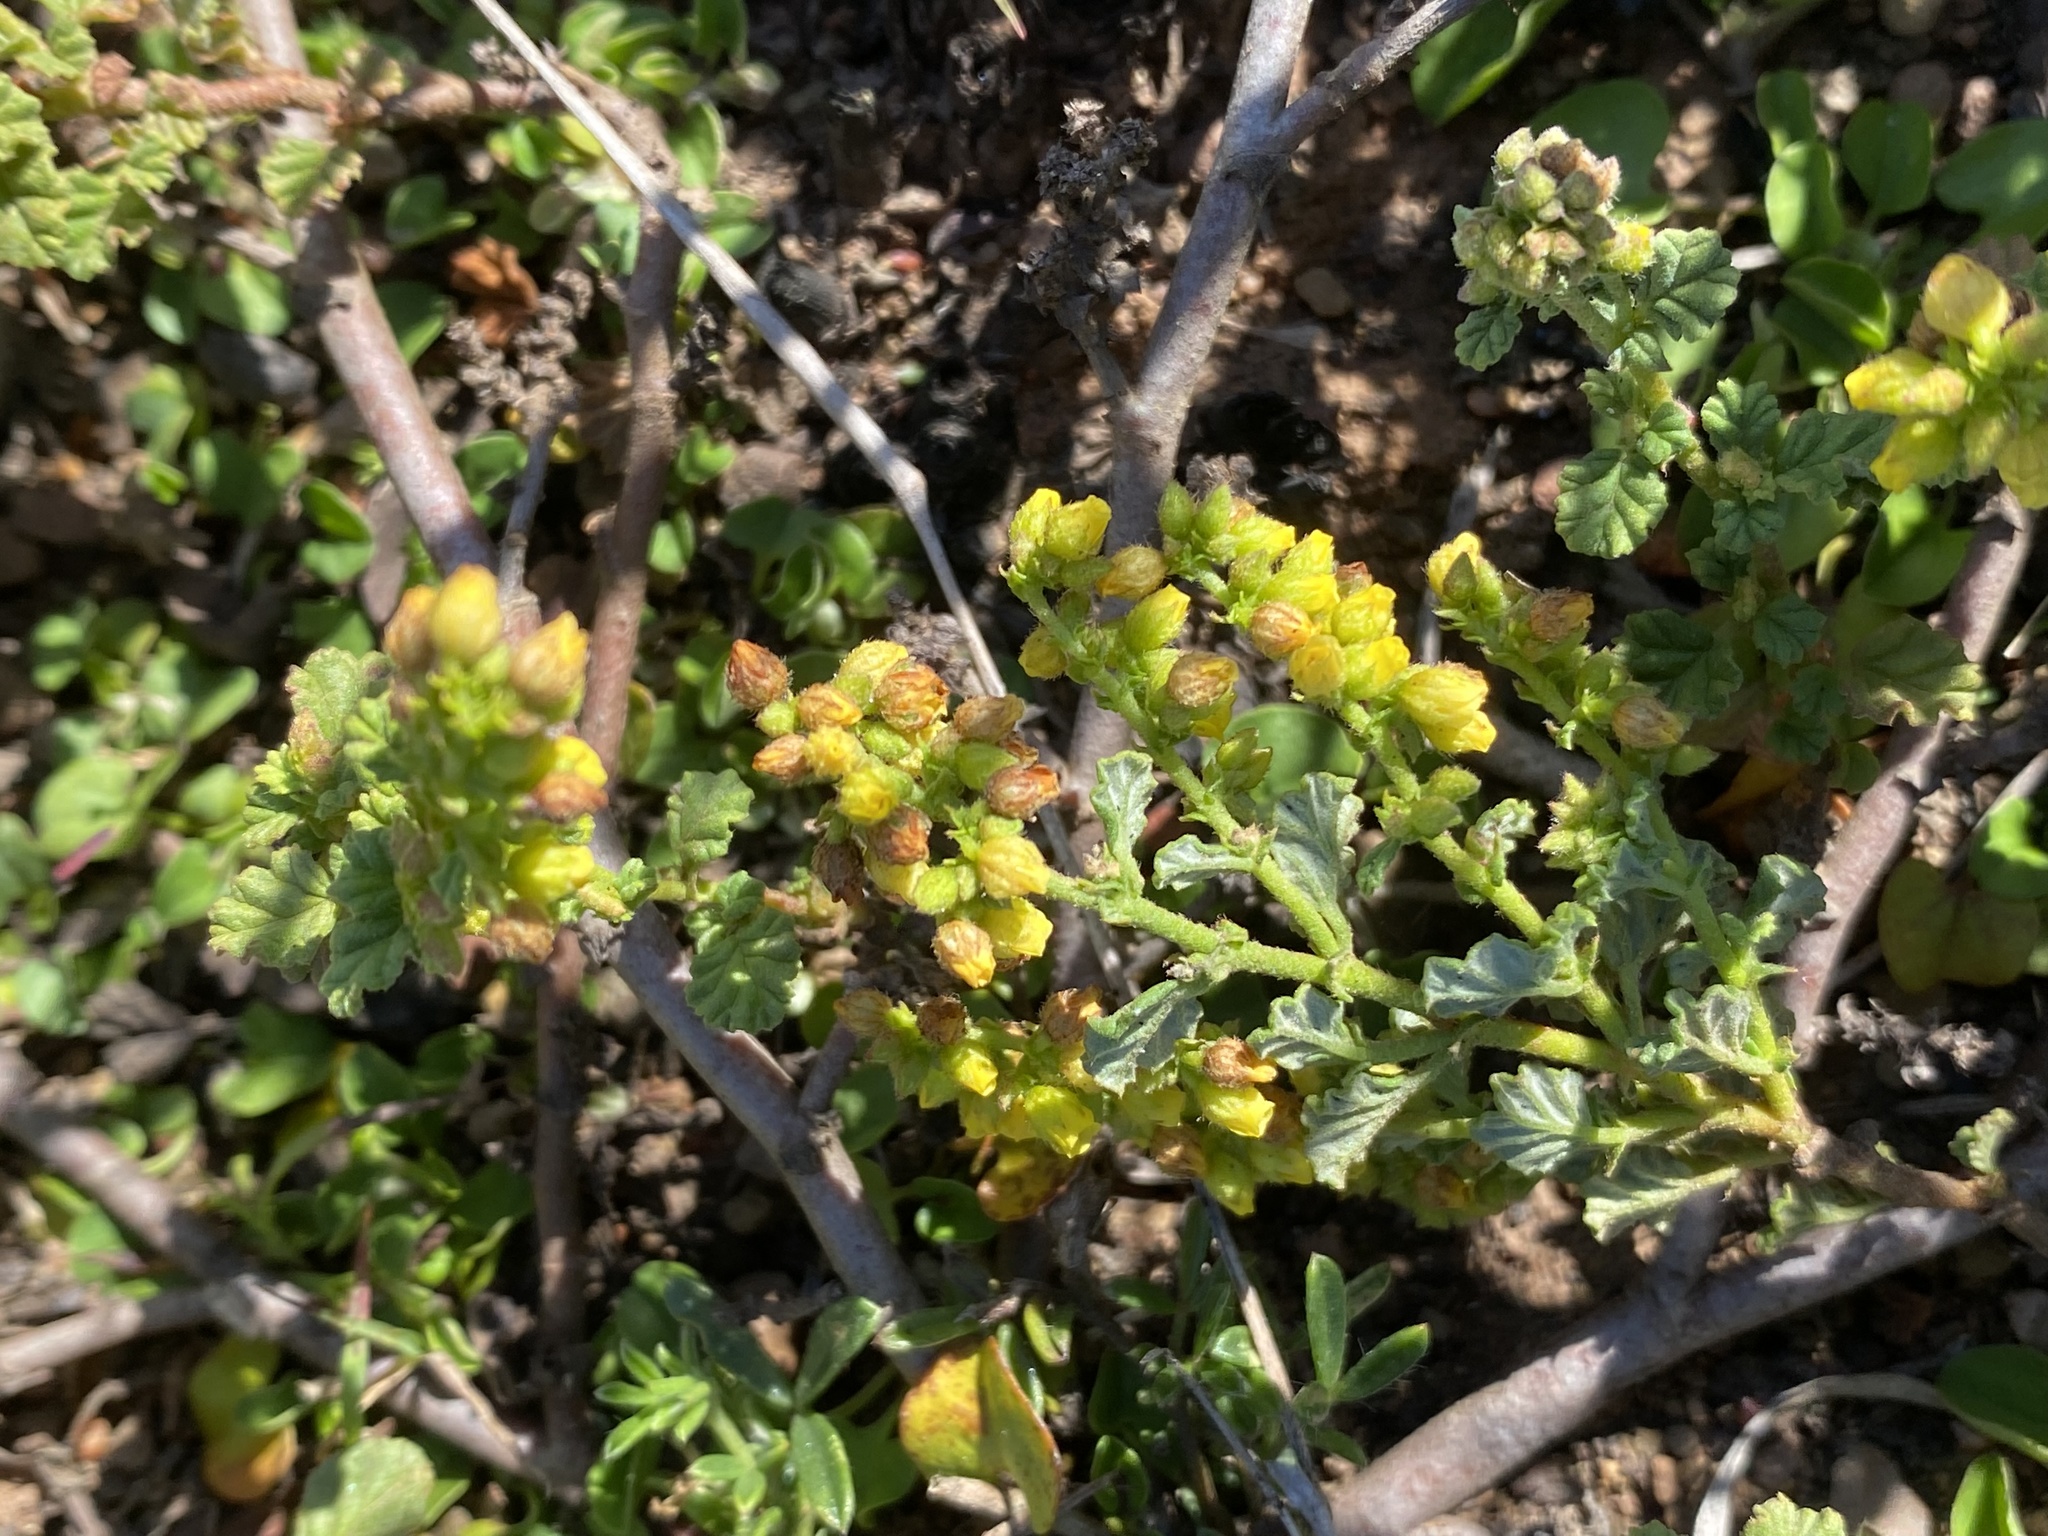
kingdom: Plantae
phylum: Tracheophyta
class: Magnoliopsida
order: Malvales
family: Malvaceae
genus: Hermannia
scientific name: Hermannia
